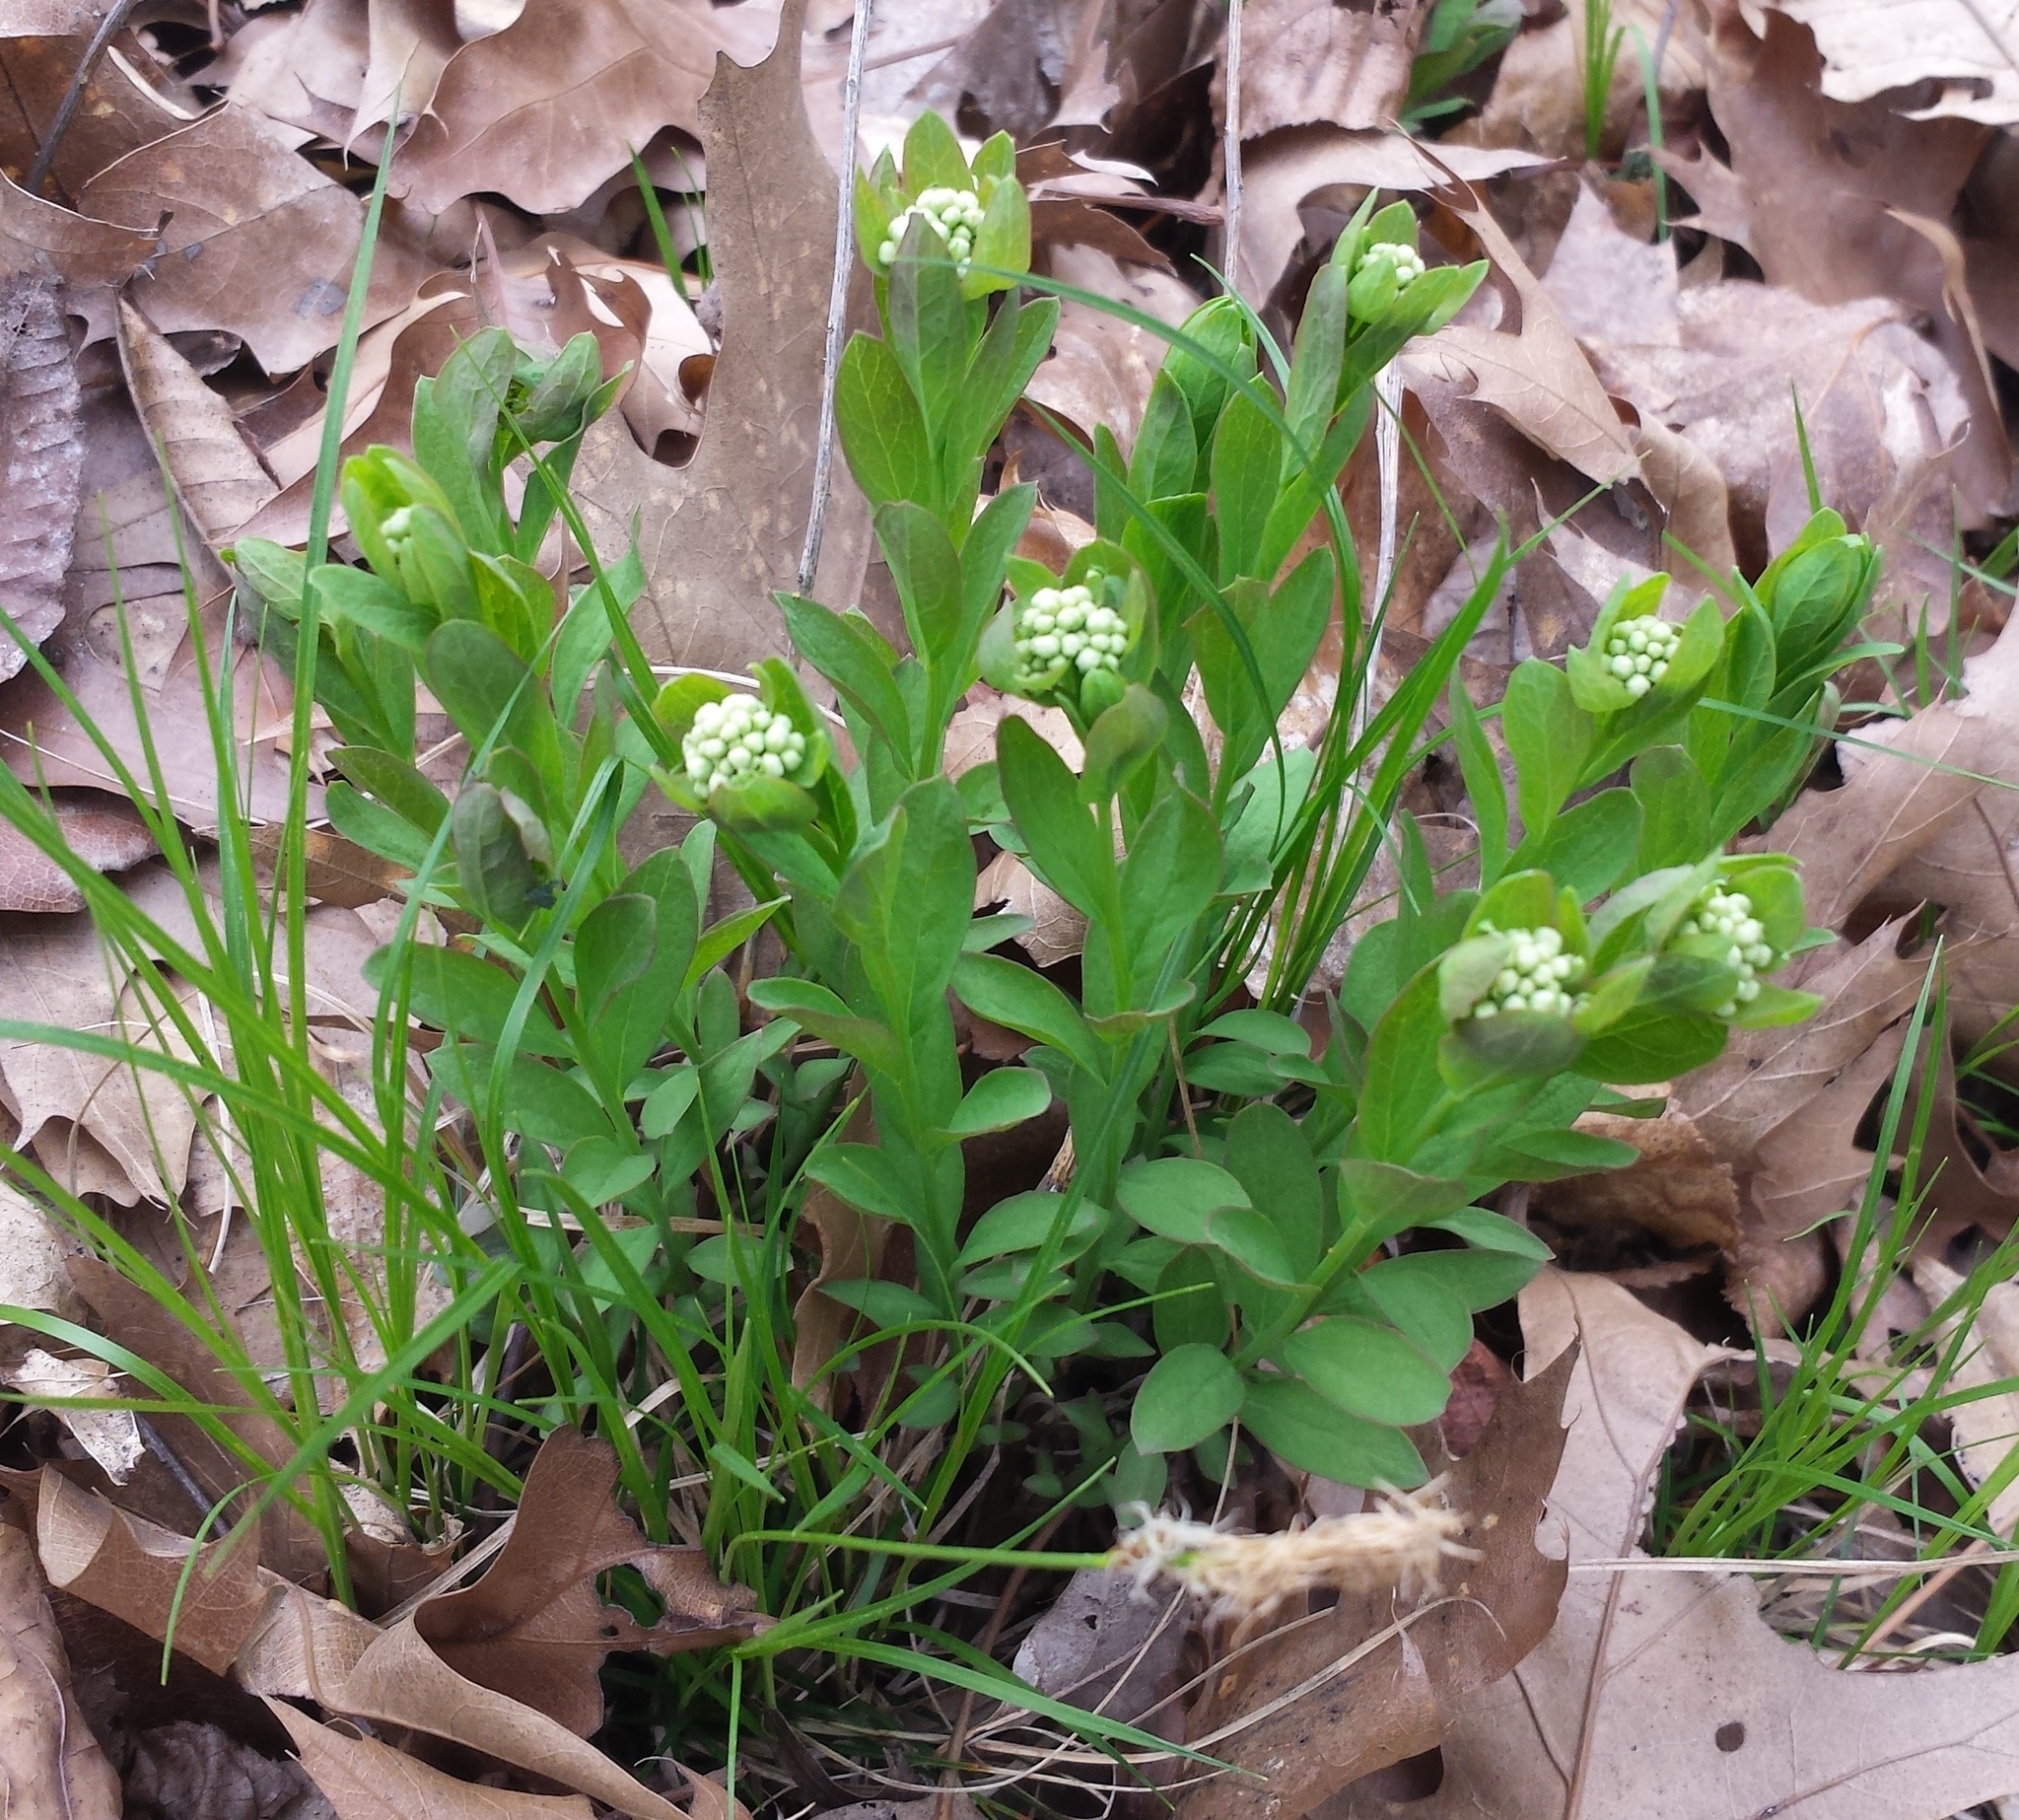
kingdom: Plantae
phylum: Tracheophyta
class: Magnoliopsida
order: Santalales
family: Comandraceae
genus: Comandra
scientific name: Comandra umbellata
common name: Bastard toadflax
